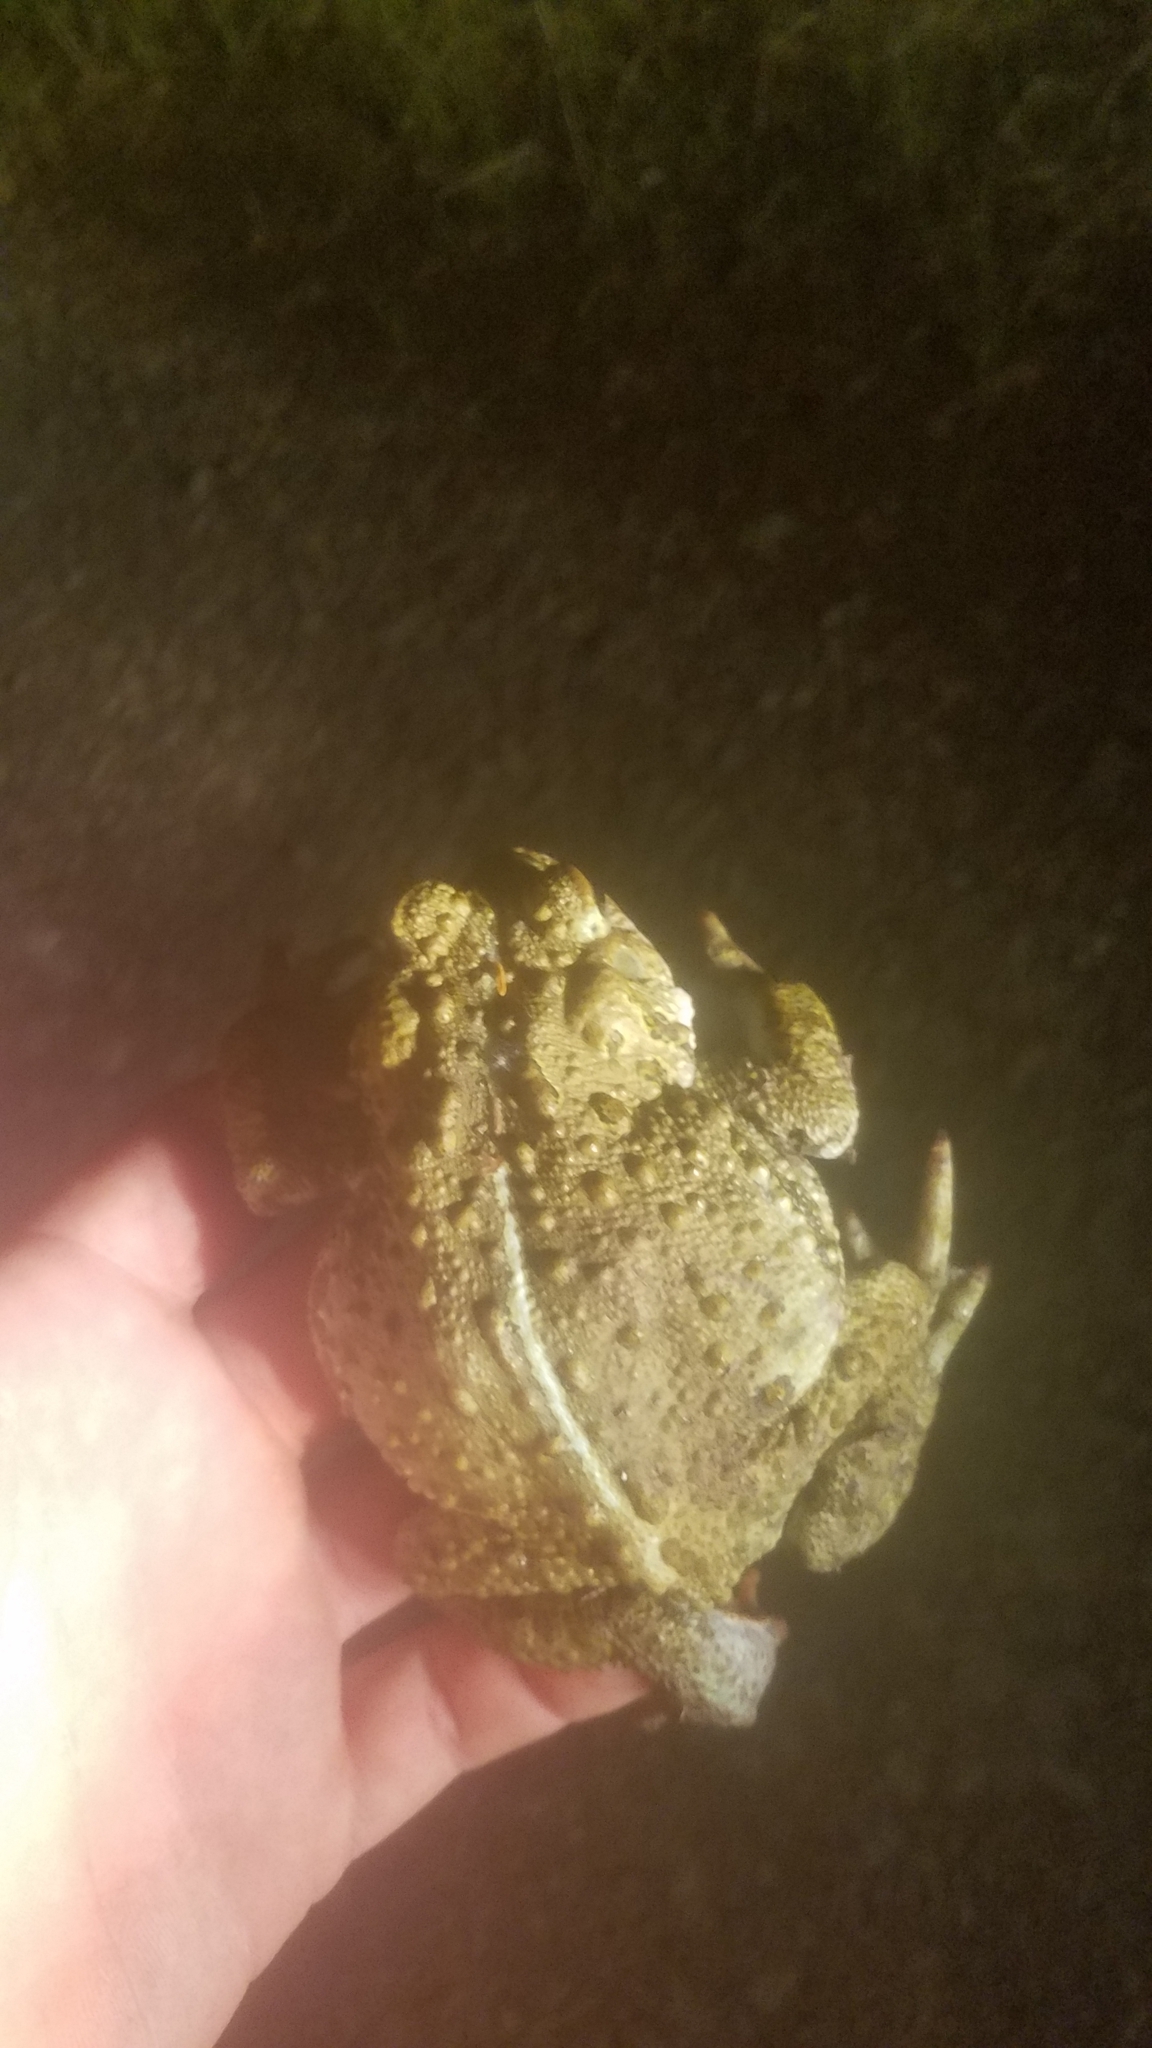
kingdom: Animalia
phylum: Chordata
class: Amphibia
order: Anura
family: Bufonidae
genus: Anaxyrus
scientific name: Anaxyrus boreas
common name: Western toad
